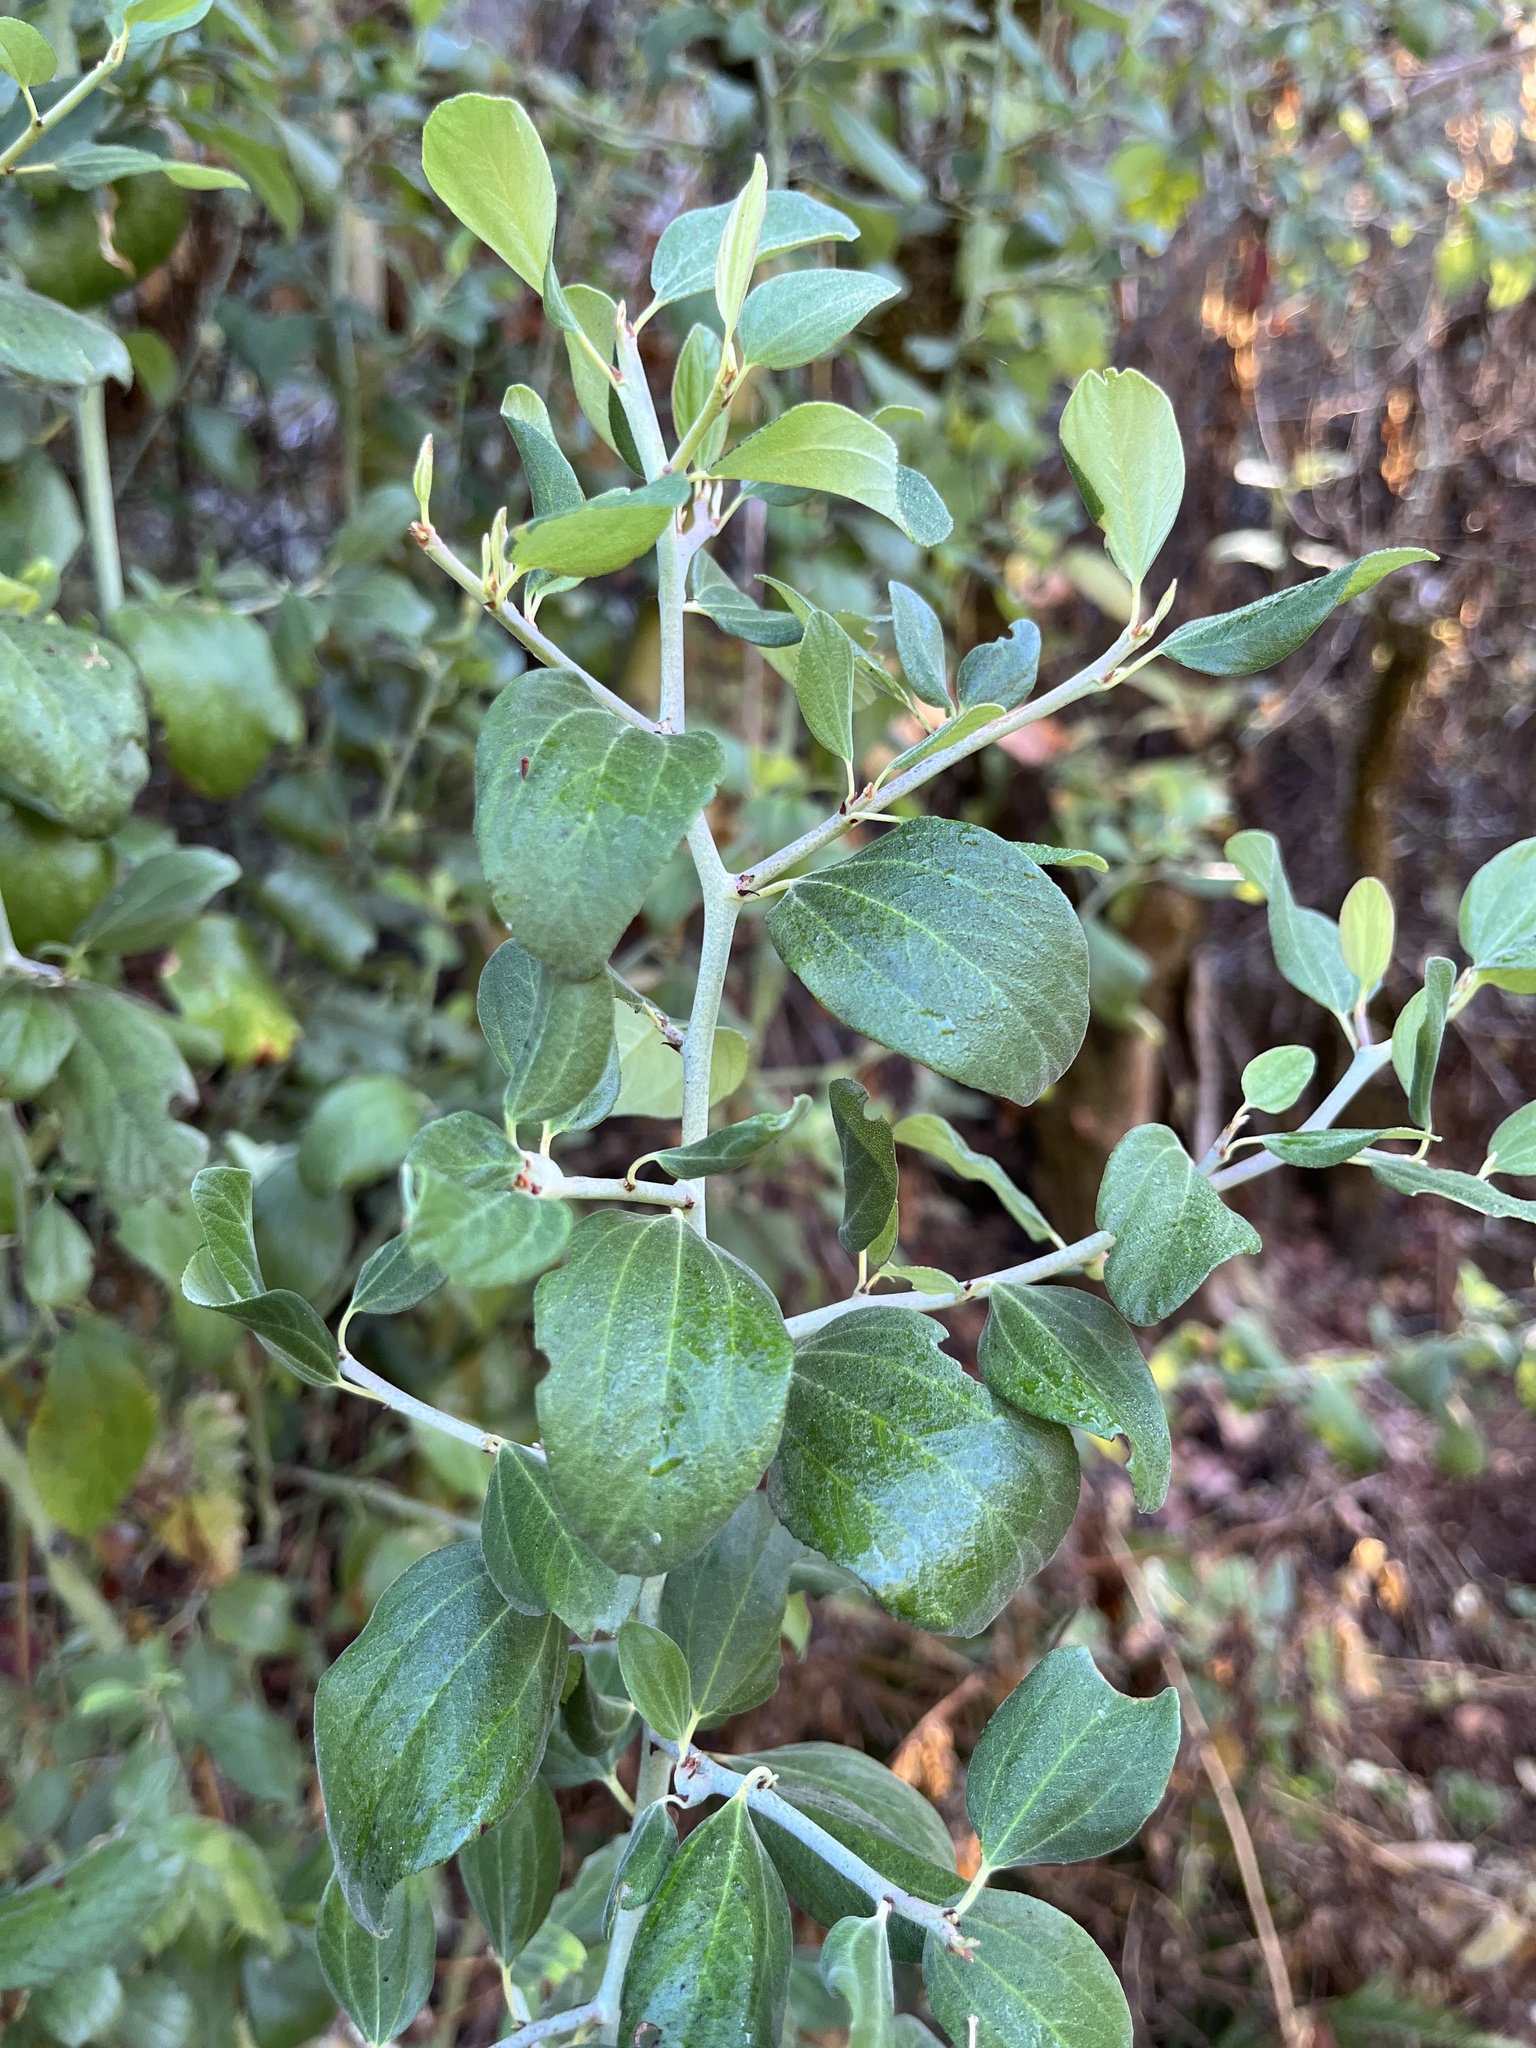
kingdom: Plantae
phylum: Tracheophyta
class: Magnoliopsida
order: Rosales
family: Rhamnaceae
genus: Ceanothus
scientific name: Ceanothus incanus
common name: Coast whitethorn
